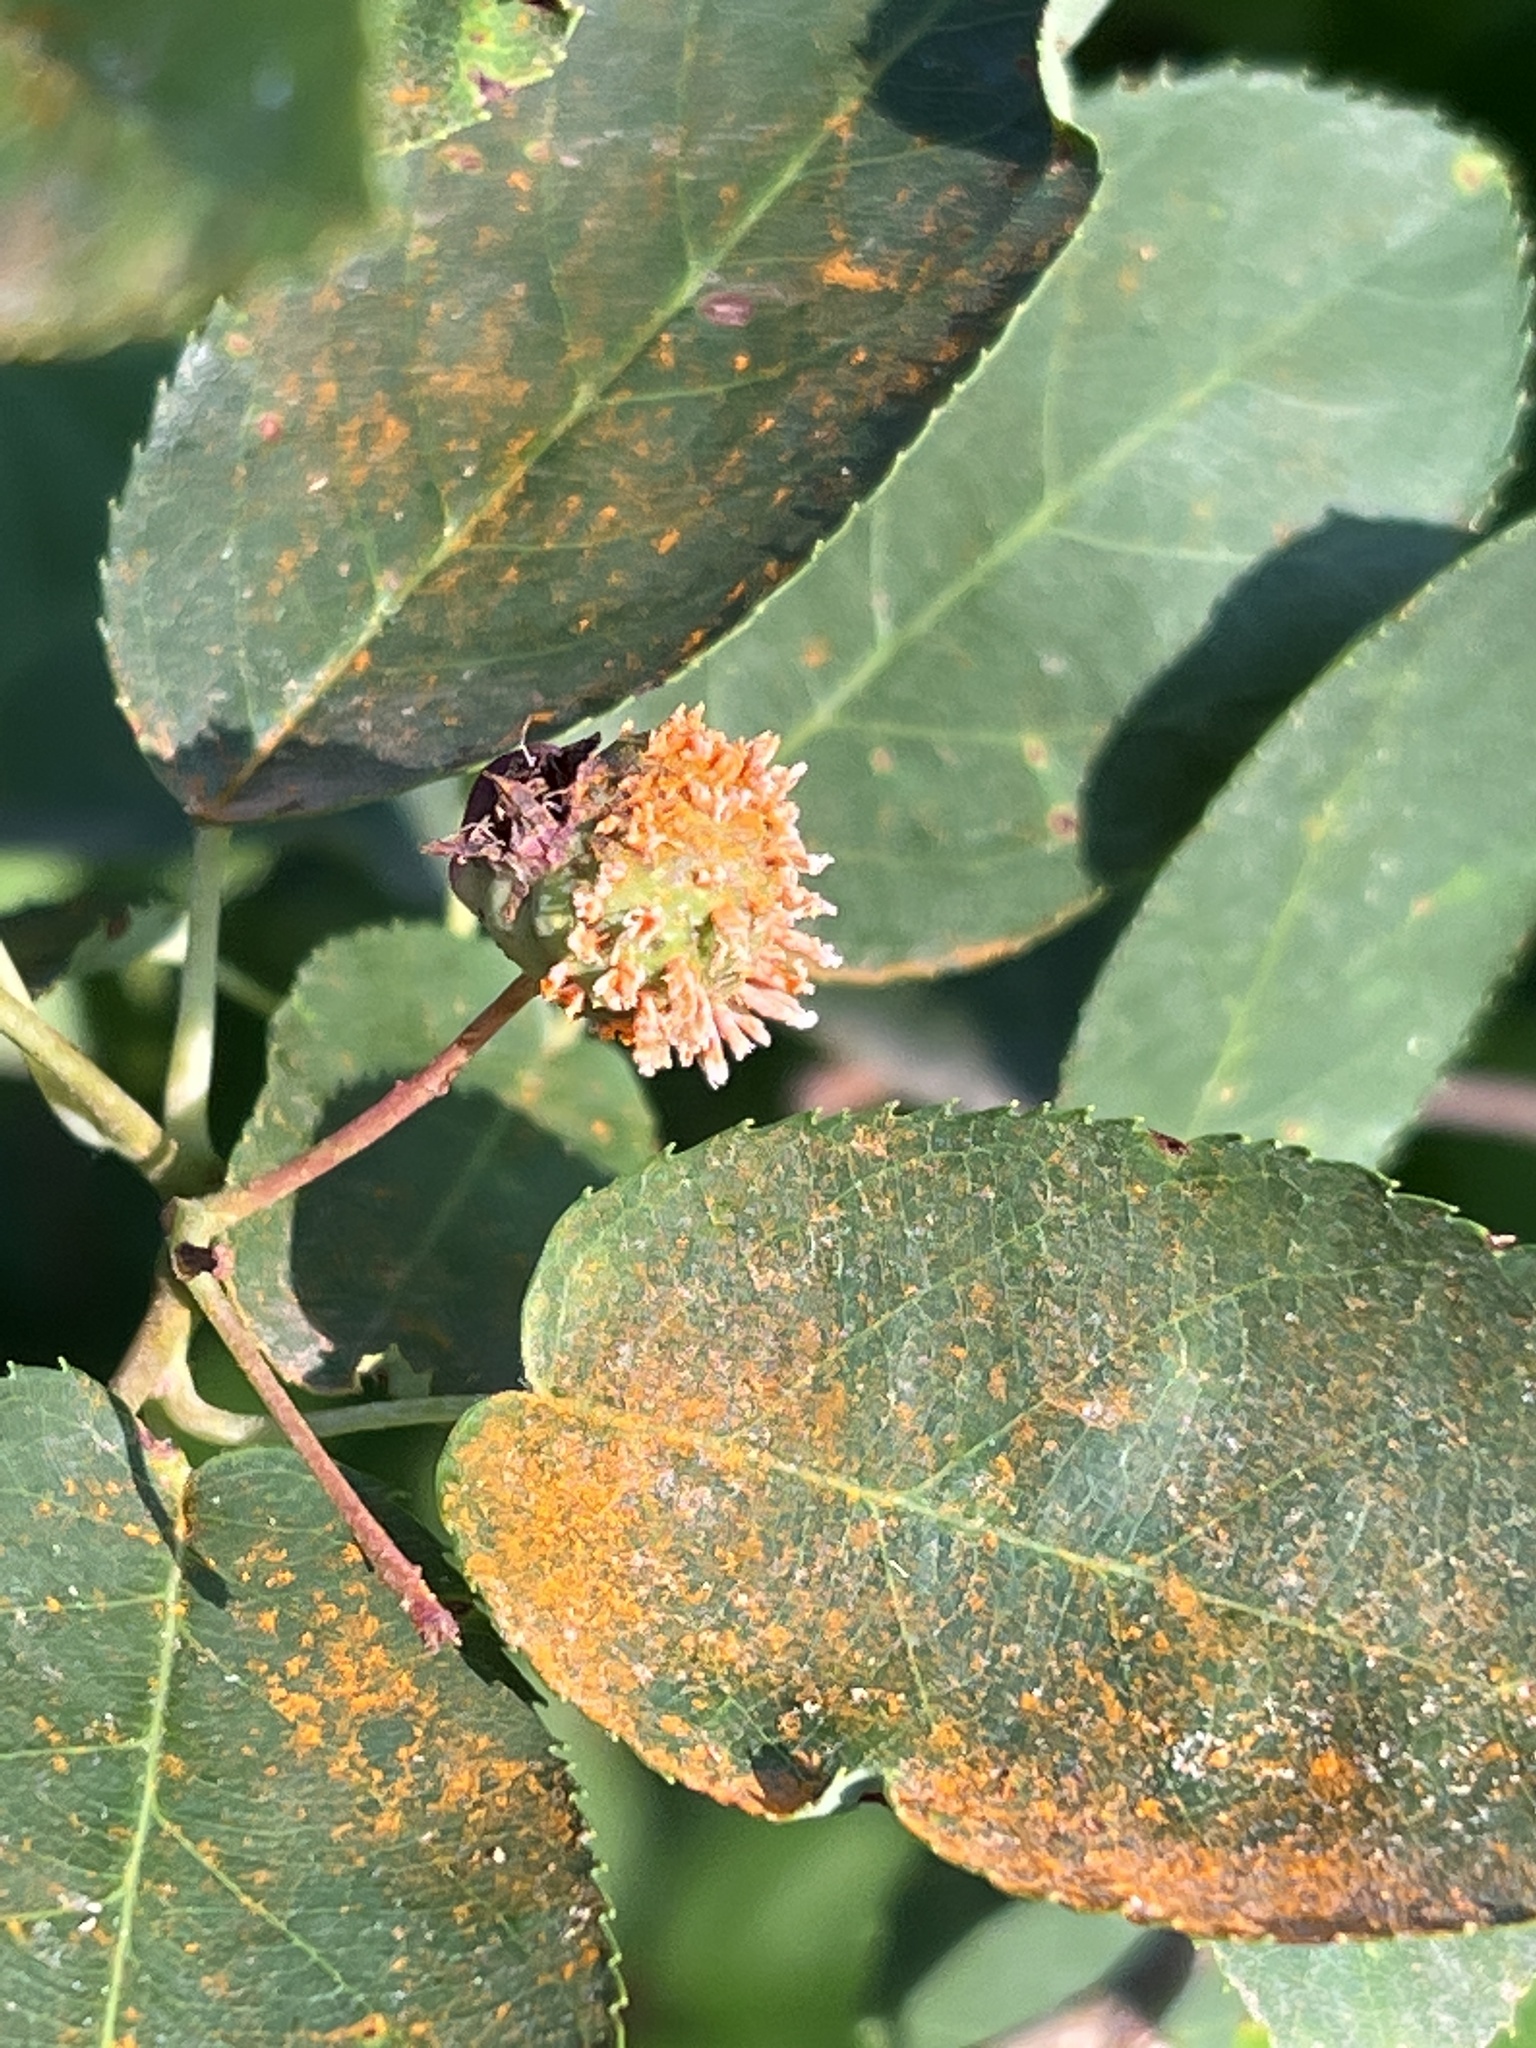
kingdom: Fungi
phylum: Basidiomycota
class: Pucciniomycetes
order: Pucciniales
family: Gymnosporangiaceae
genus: Gymnosporangium
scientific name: Gymnosporangium clavipes
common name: Quince rust
